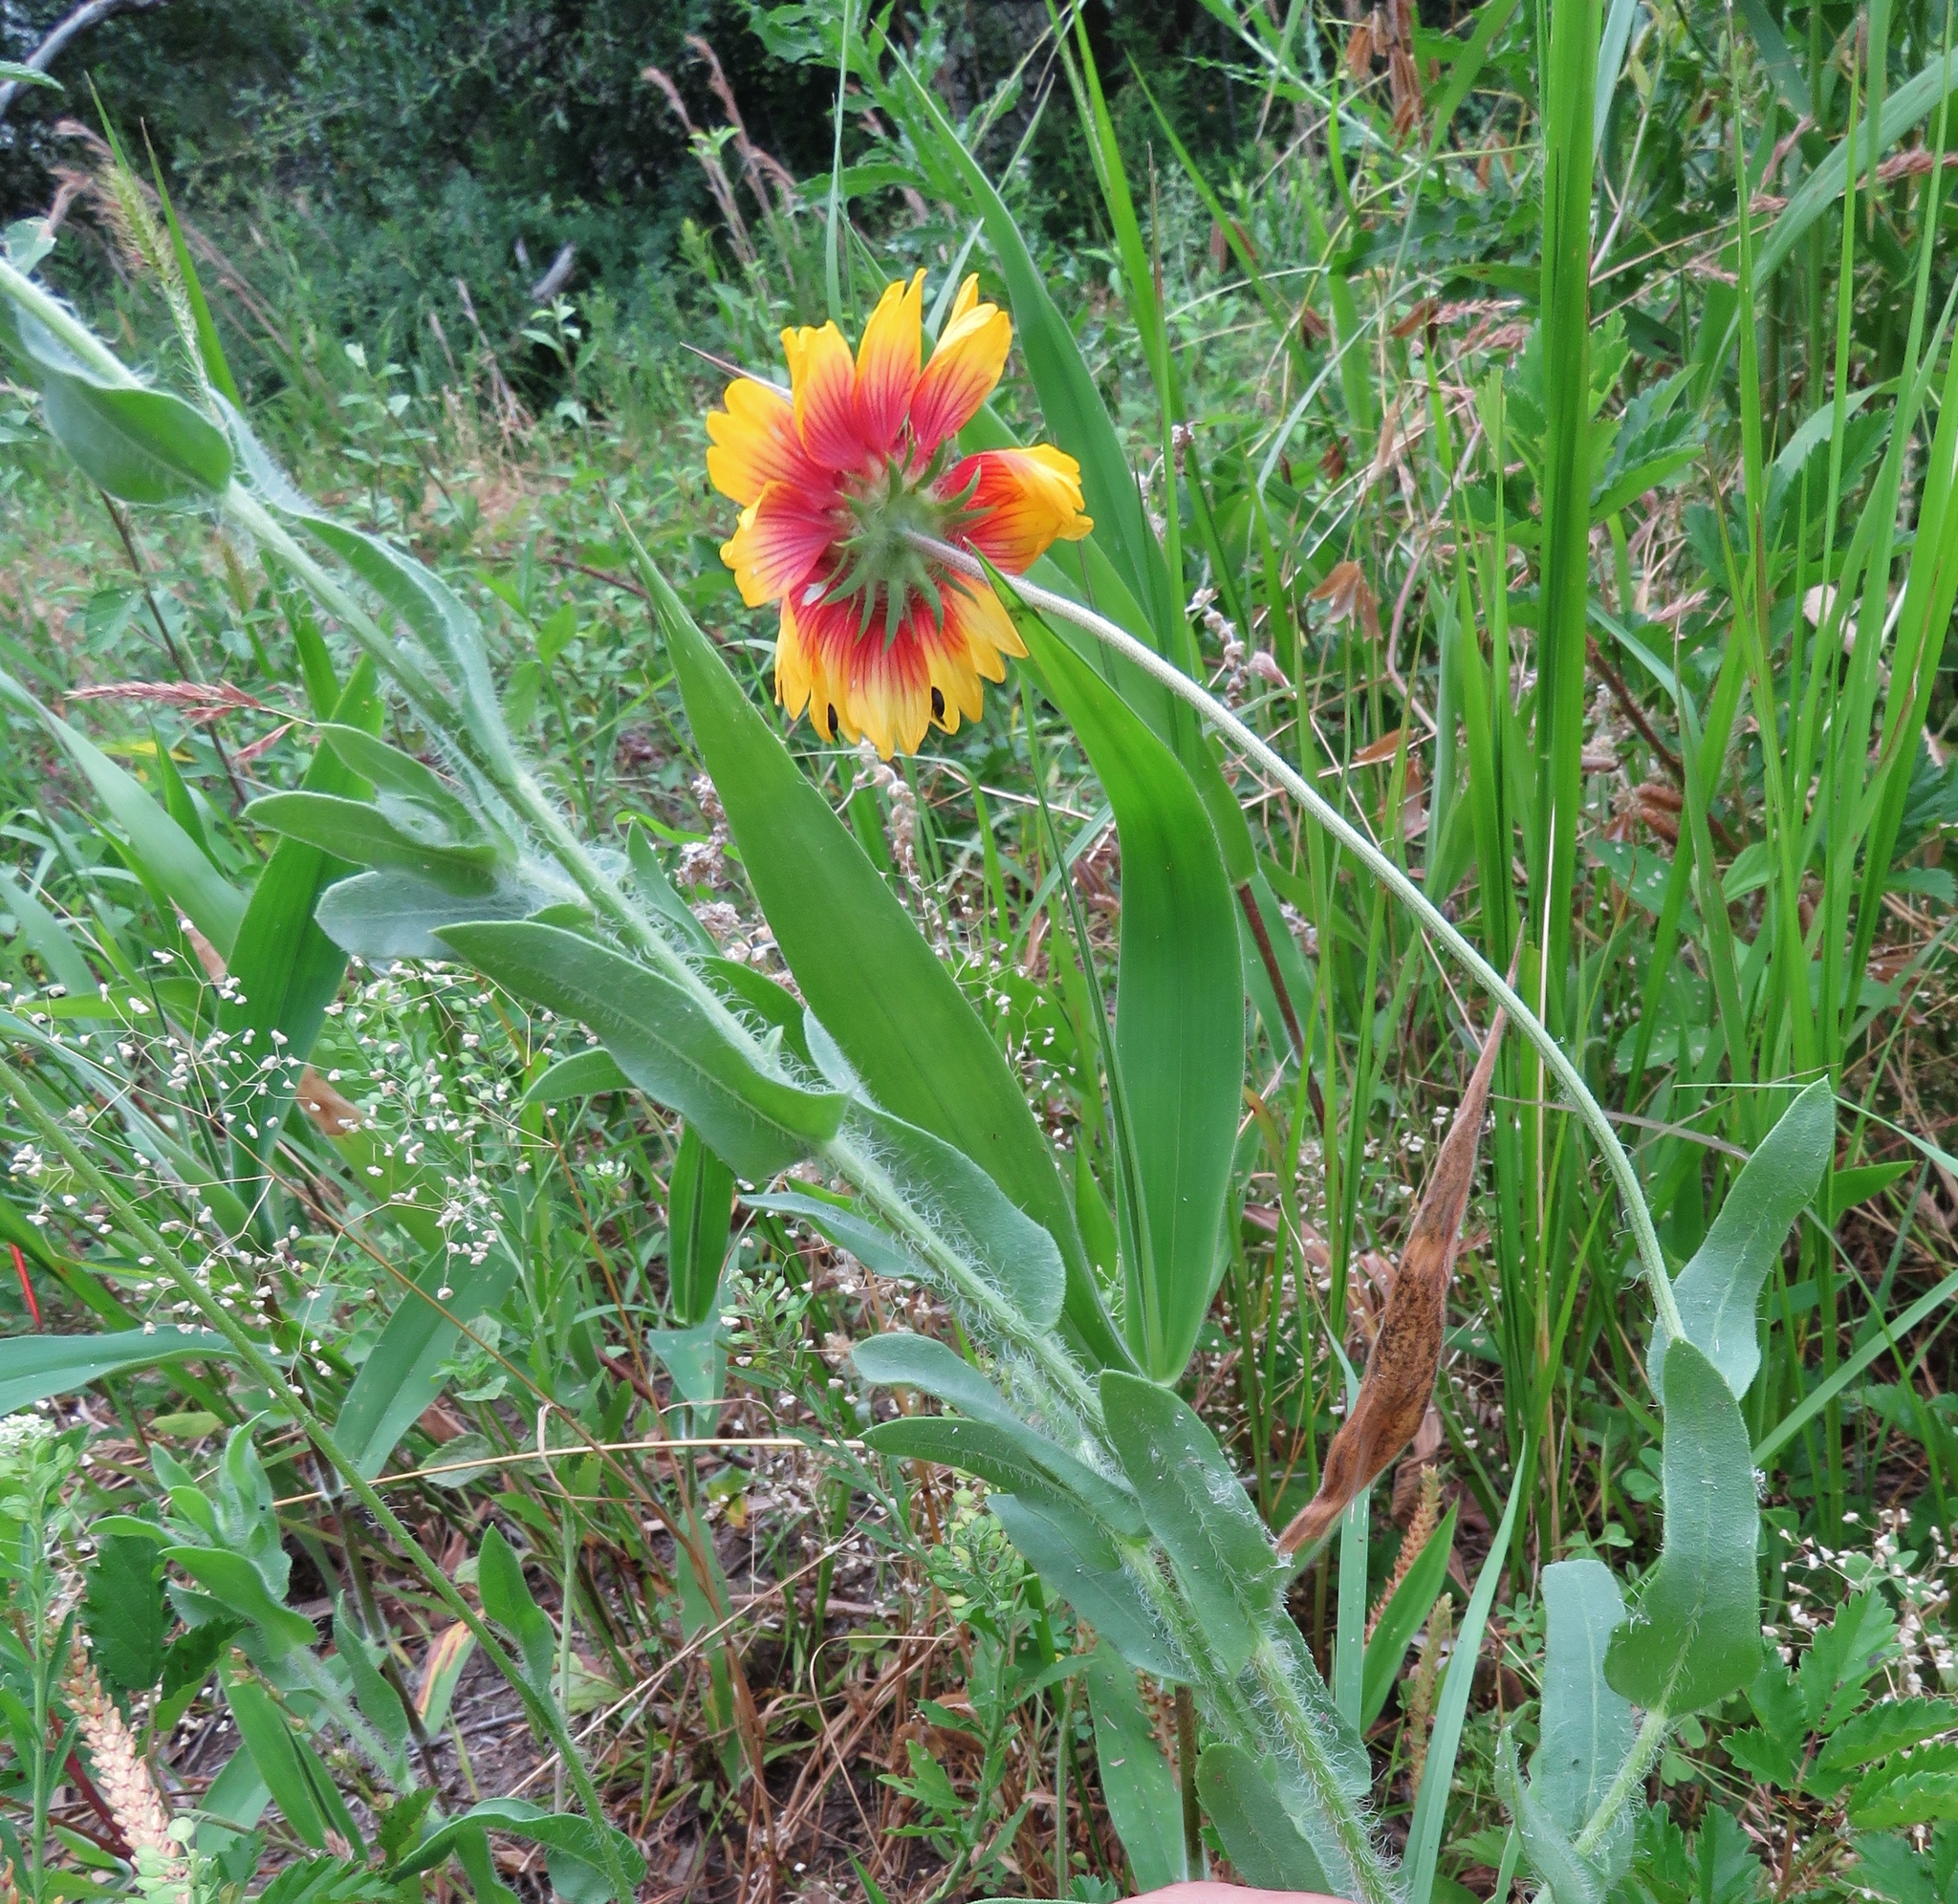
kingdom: Plantae
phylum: Tracheophyta
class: Magnoliopsida
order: Asterales
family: Asteraceae
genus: Gaillardia
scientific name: Gaillardia pulchella
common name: Firewheel
